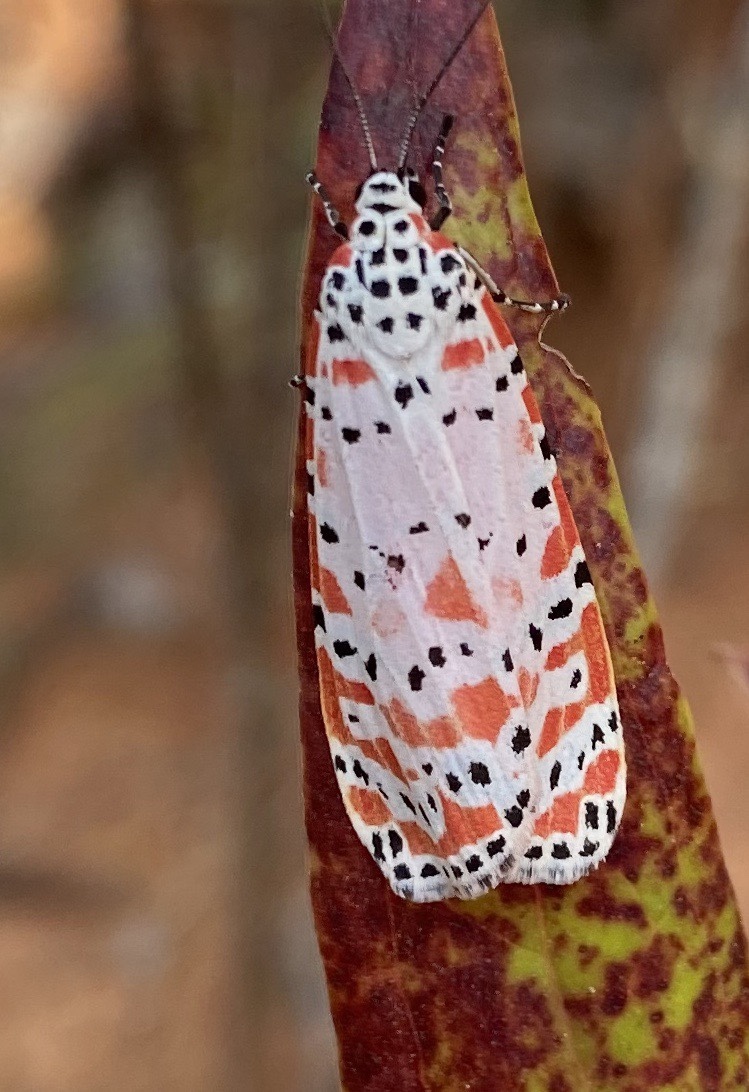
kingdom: Animalia
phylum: Arthropoda
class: Insecta
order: Lepidoptera
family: Erebidae
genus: Utetheisa
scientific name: Utetheisa ornatrix
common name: Beautiful utetheisa
